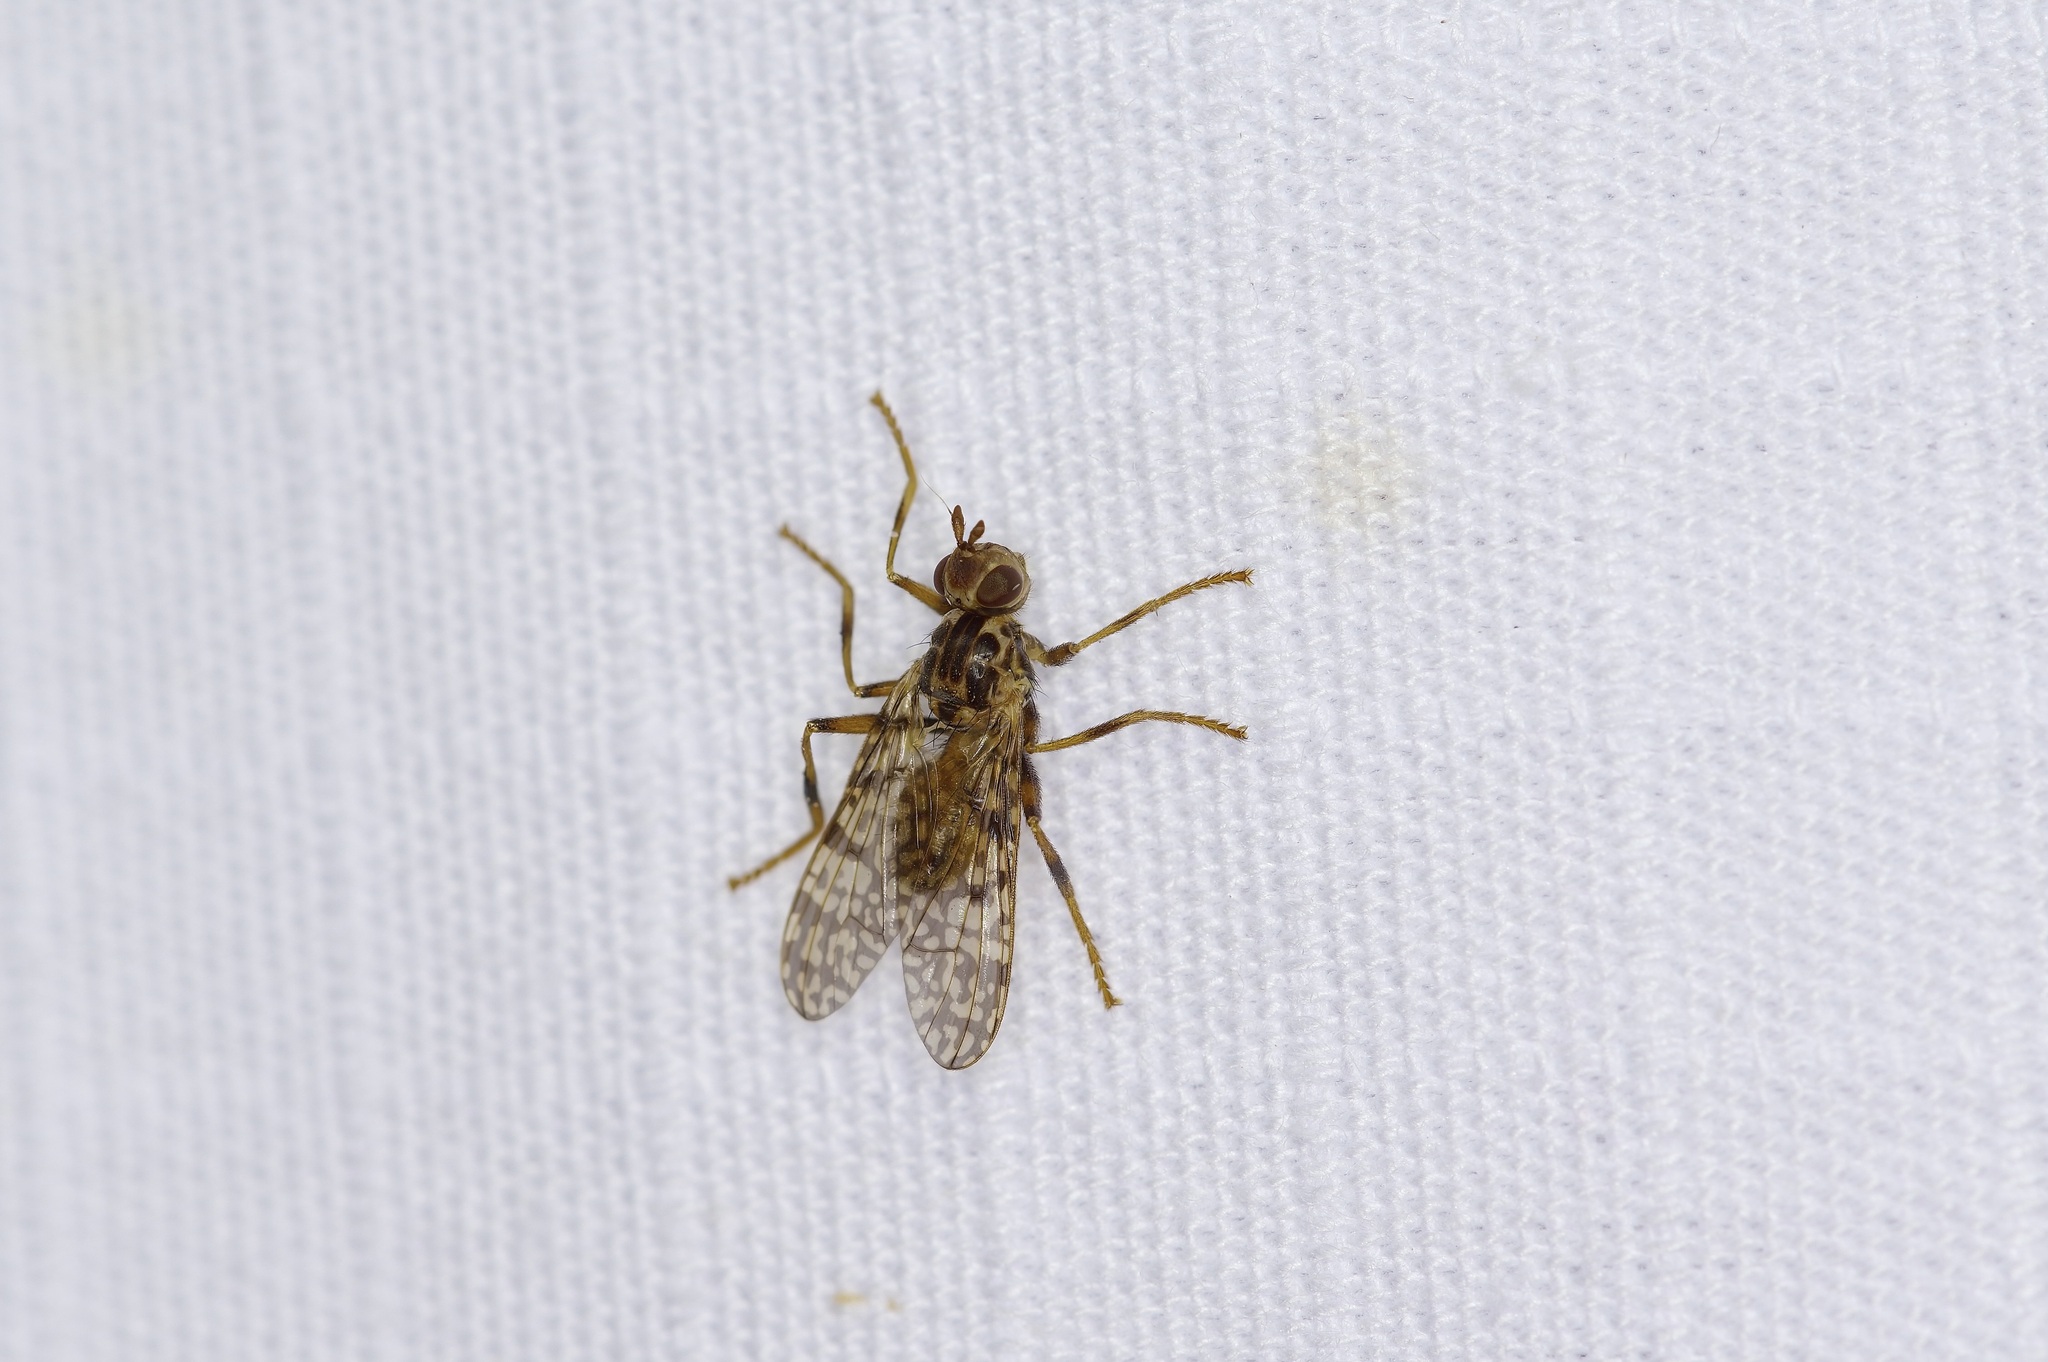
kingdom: Animalia
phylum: Arthropoda
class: Insecta
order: Diptera
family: Pyrgotidae
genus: Boreothrinax
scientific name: Boreothrinax
